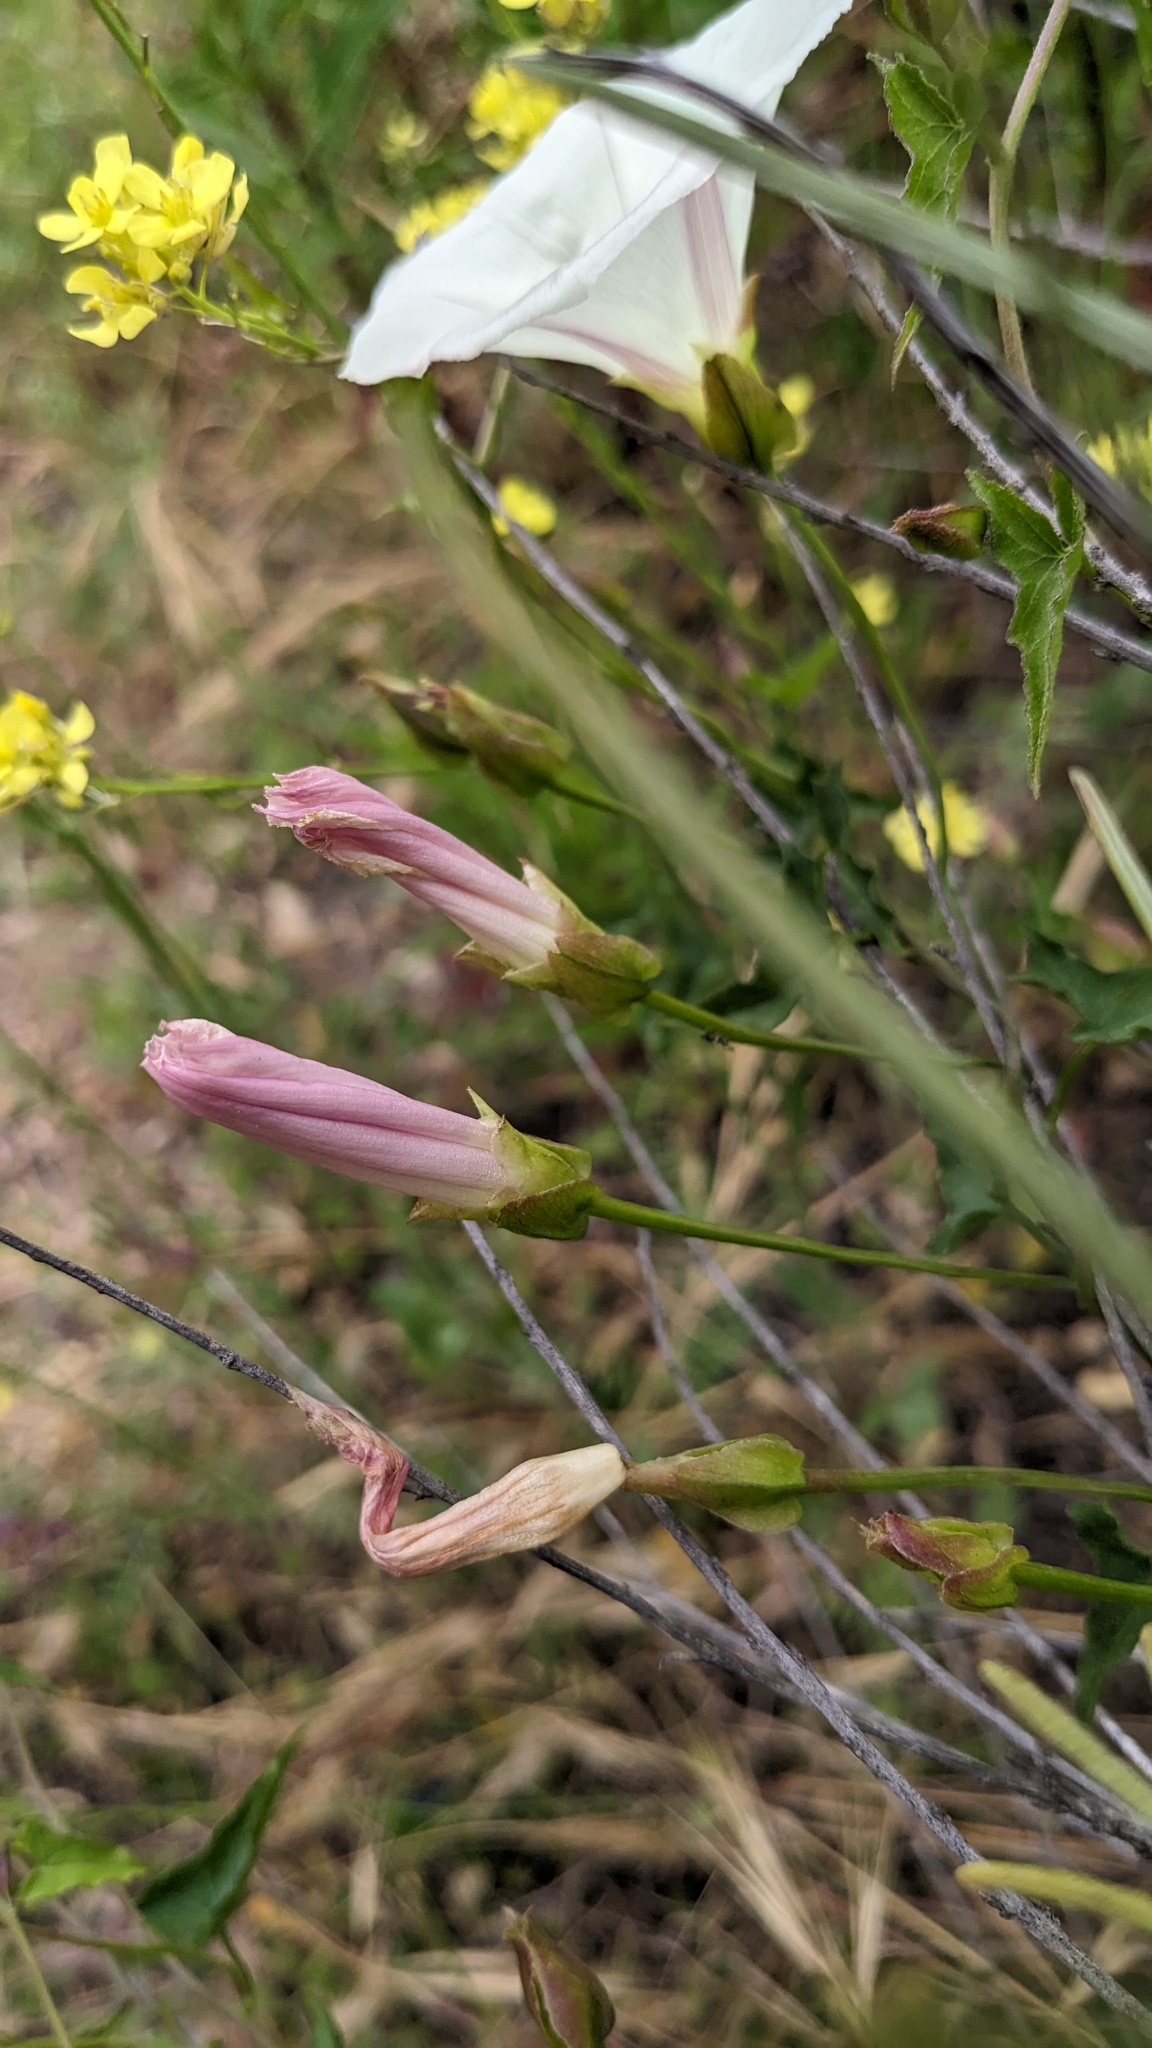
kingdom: Plantae
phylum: Tracheophyta
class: Magnoliopsida
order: Solanales
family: Convolvulaceae
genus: Calystegia
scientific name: Calystegia macrostegia
